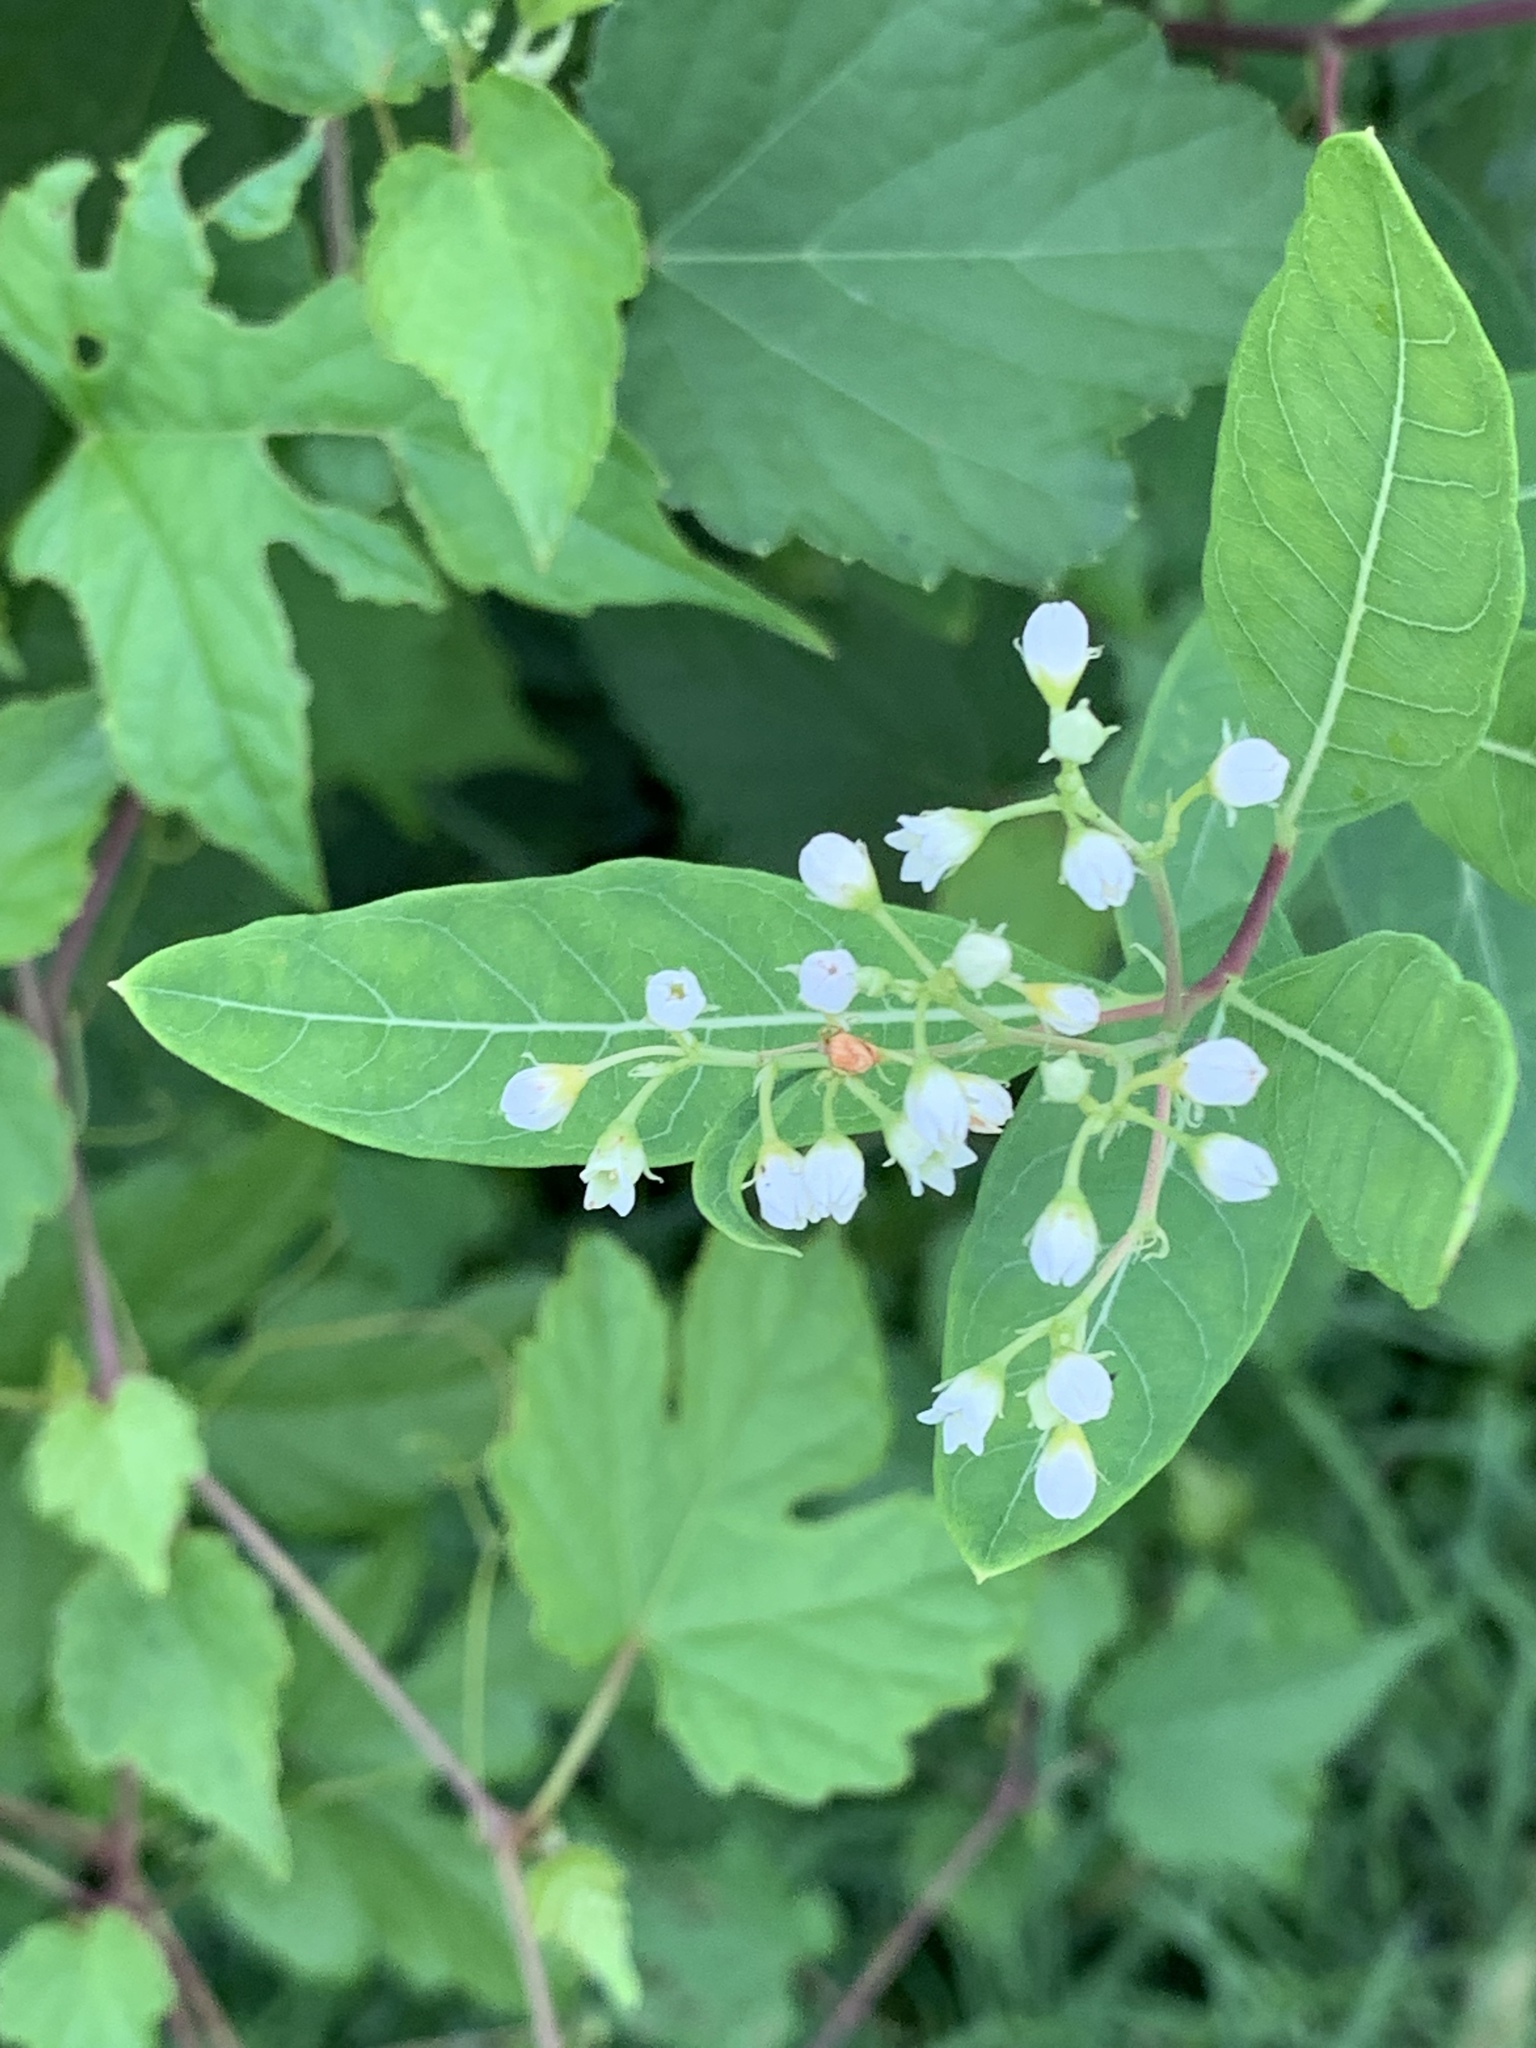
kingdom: Plantae
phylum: Tracheophyta
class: Magnoliopsida
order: Gentianales
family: Apocynaceae
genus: Apocynum
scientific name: Apocynum cannabinum
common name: Hemp dogbane
